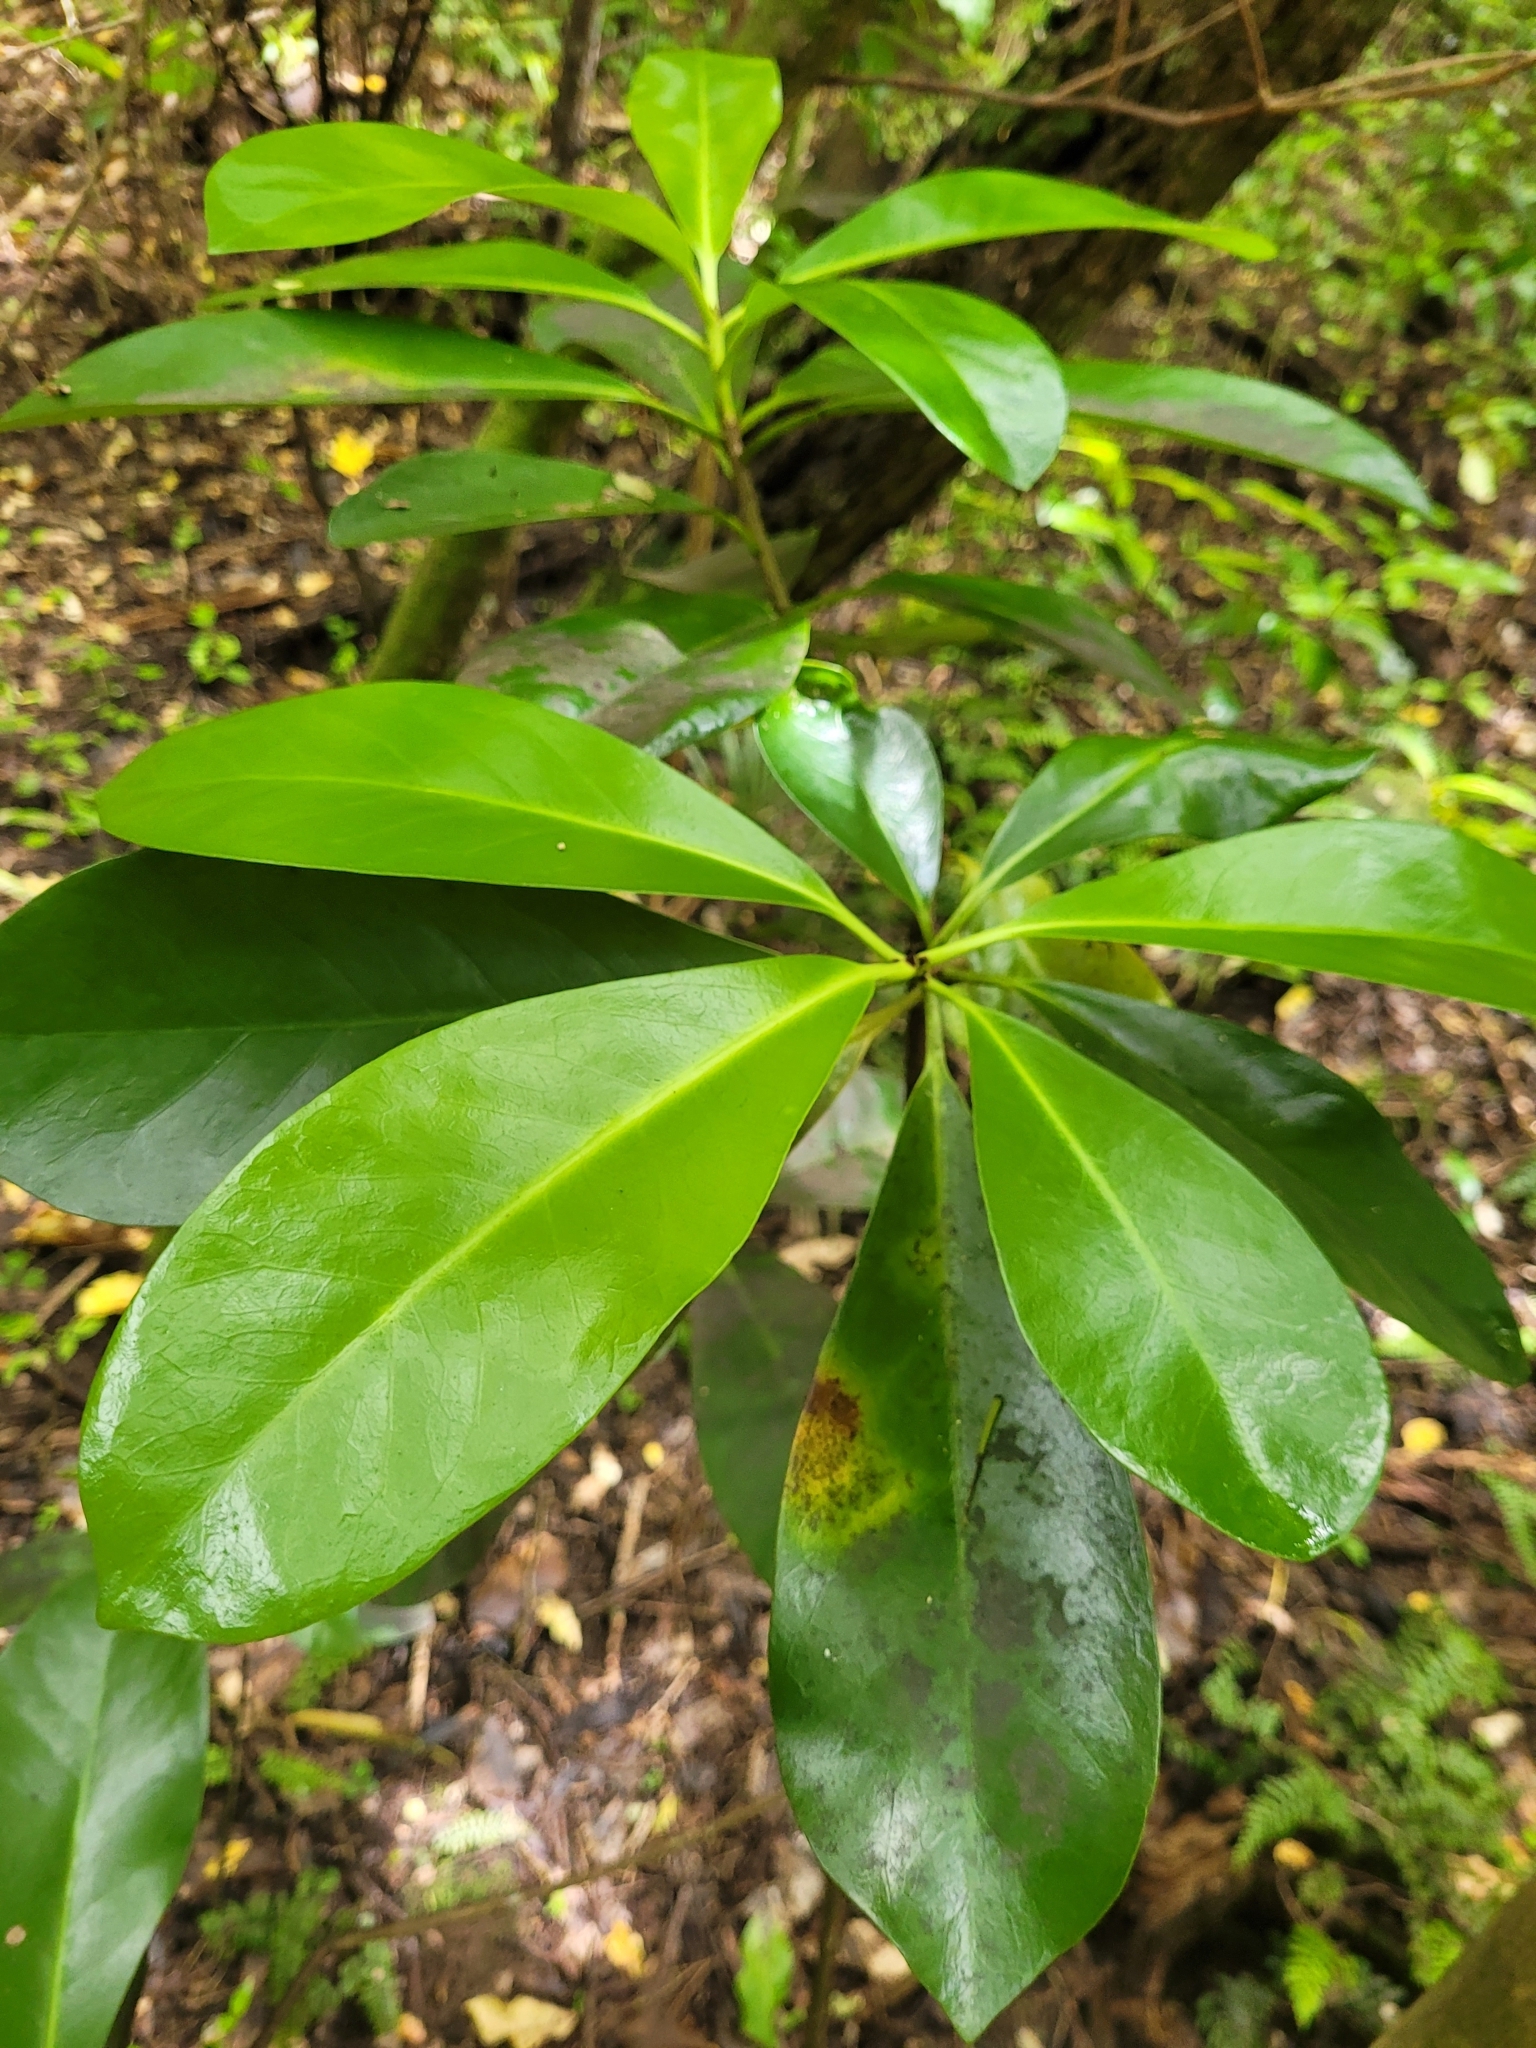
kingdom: Plantae
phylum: Tracheophyta
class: Magnoliopsida
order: Cucurbitales
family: Corynocarpaceae
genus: Corynocarpus
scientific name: Corynocarpus laevigatus
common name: New zealand laurel
